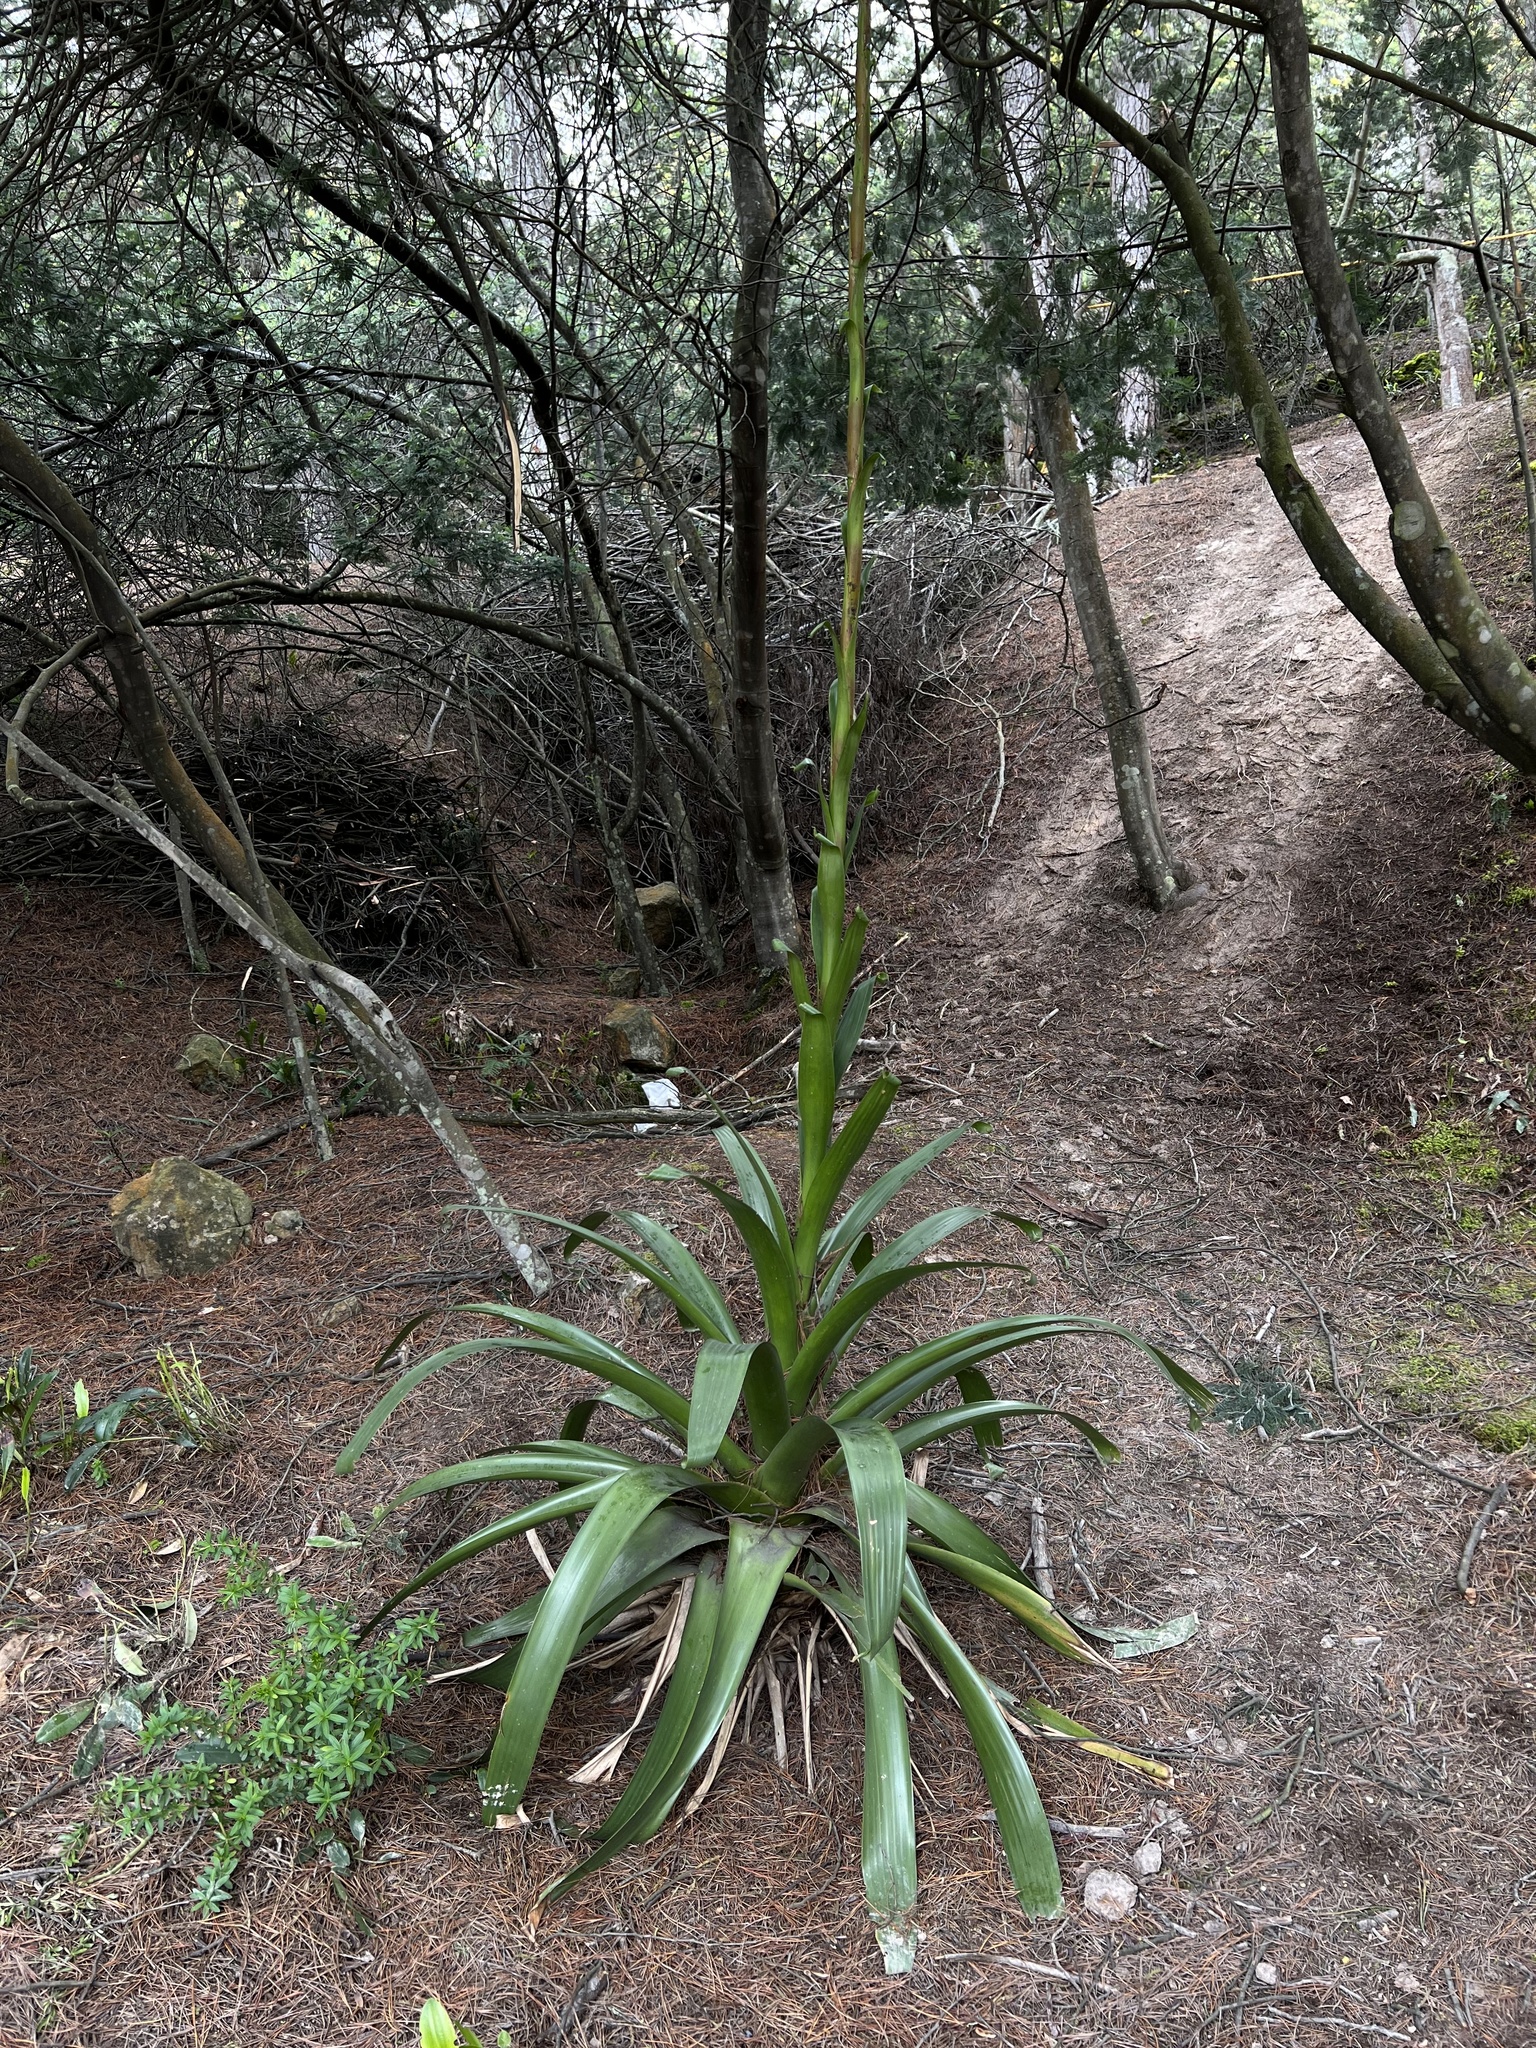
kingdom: Plantae
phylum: Tracheophyta
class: Liliopsida
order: Poales
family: Bromeliaceae
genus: Tillandsia
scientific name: Tillandsia denudata
